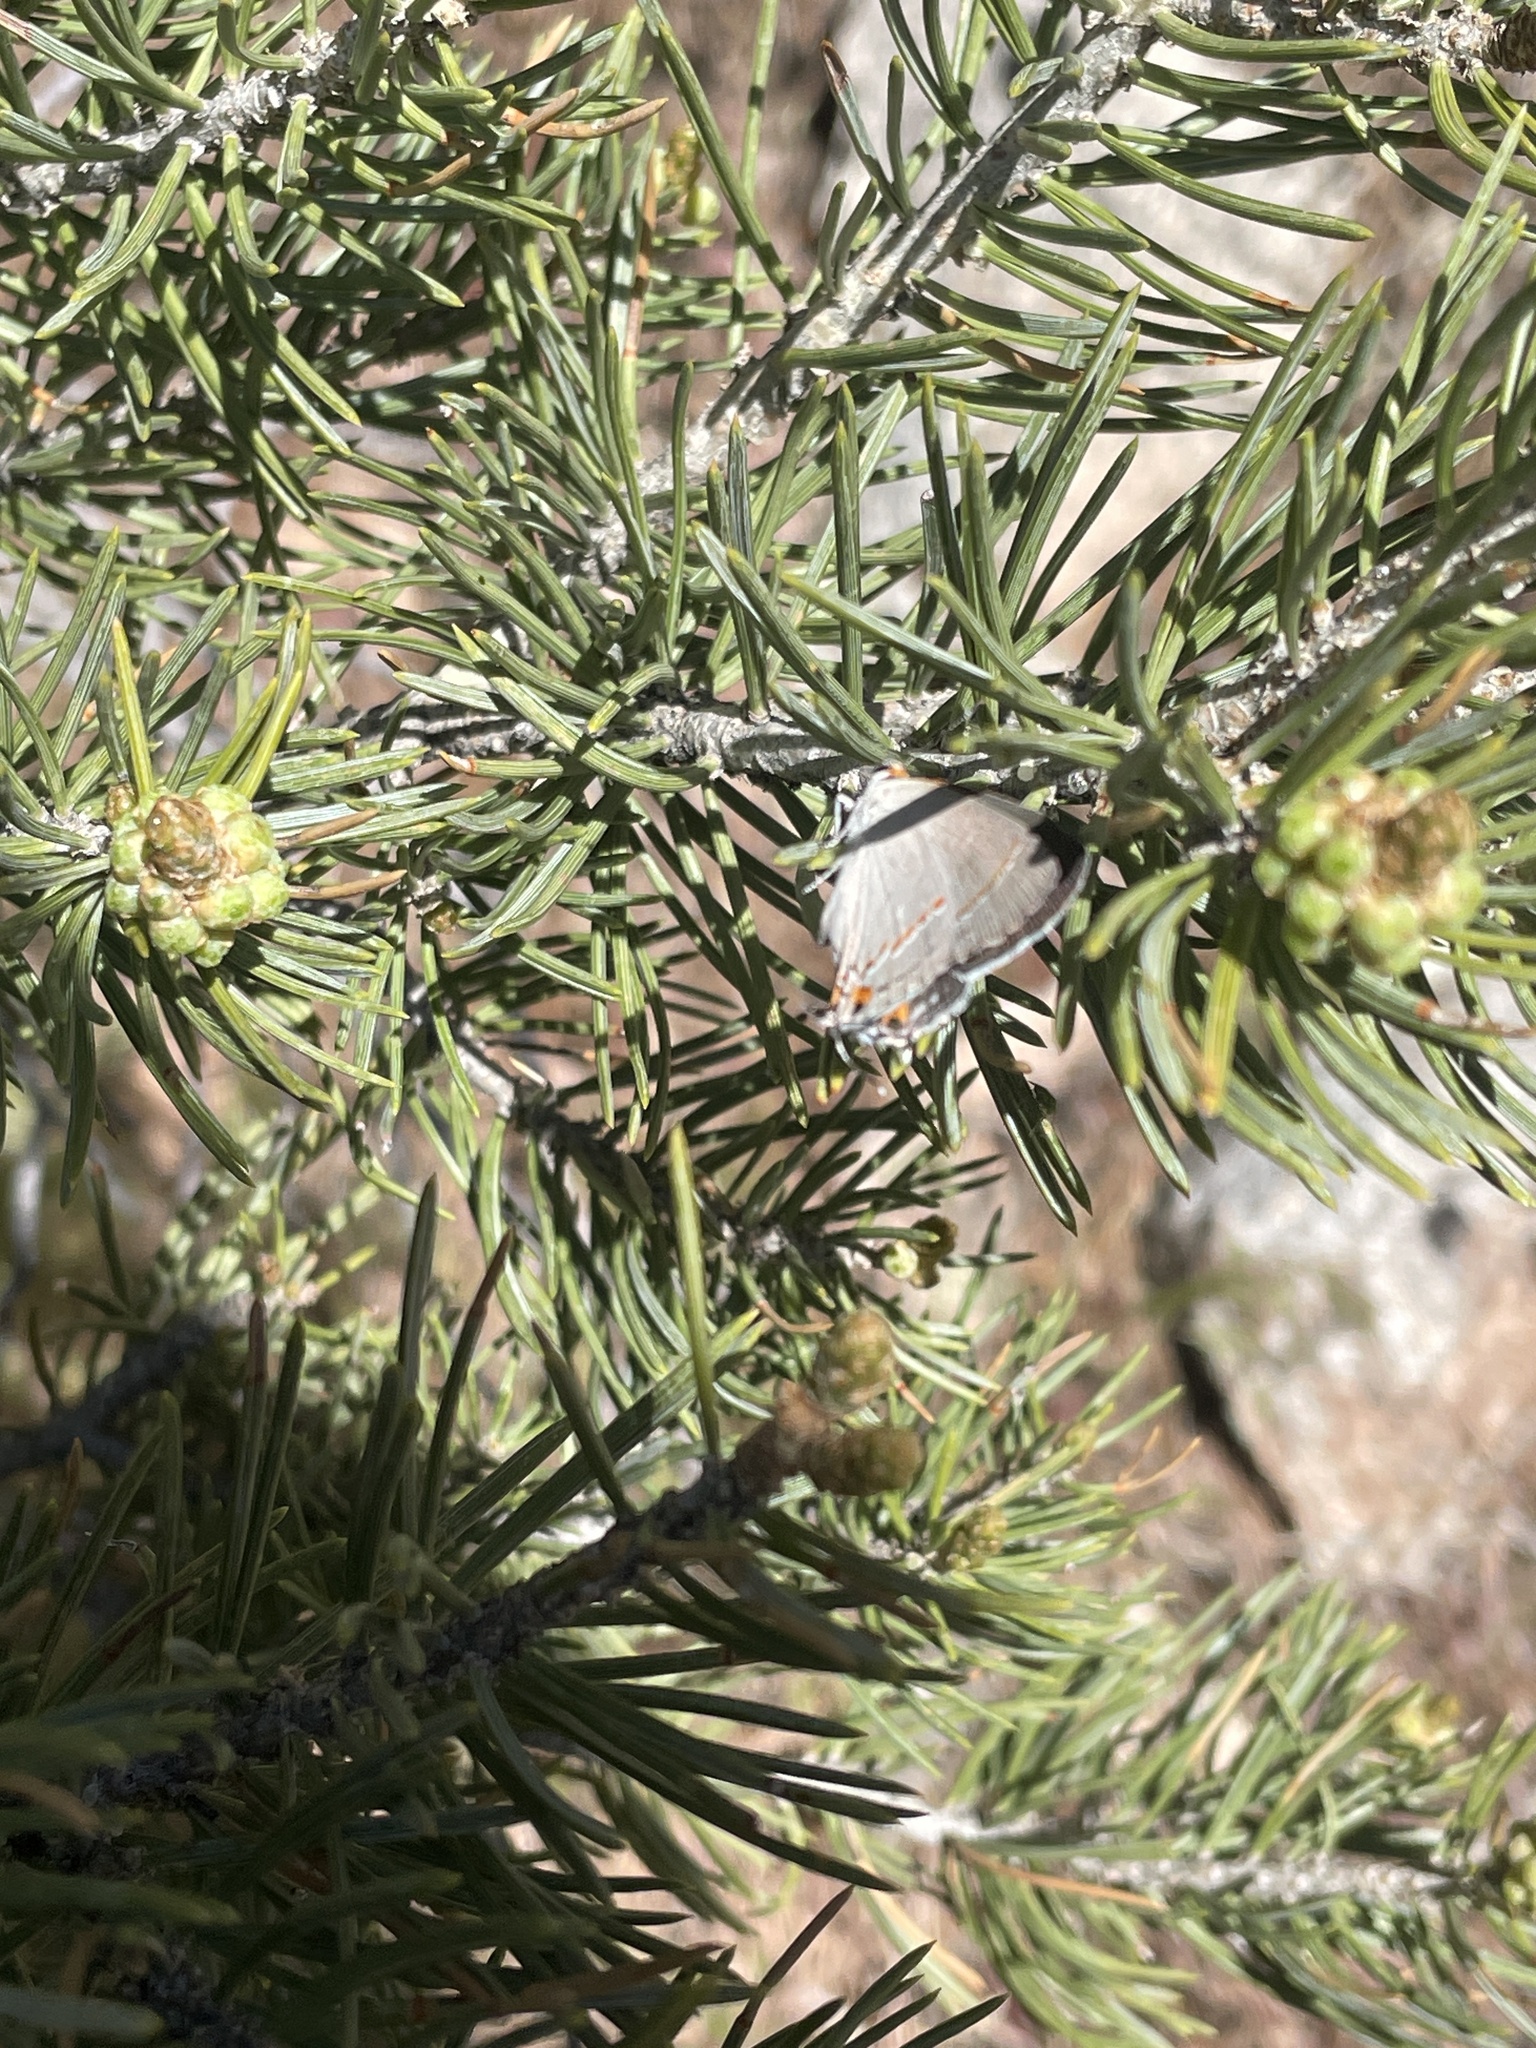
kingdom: Animalia
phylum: Arthropoda
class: Insecta
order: Lepidoptera
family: Lycaenidae
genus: Strymon
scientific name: Strymon melinus
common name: Gray hairstreak
